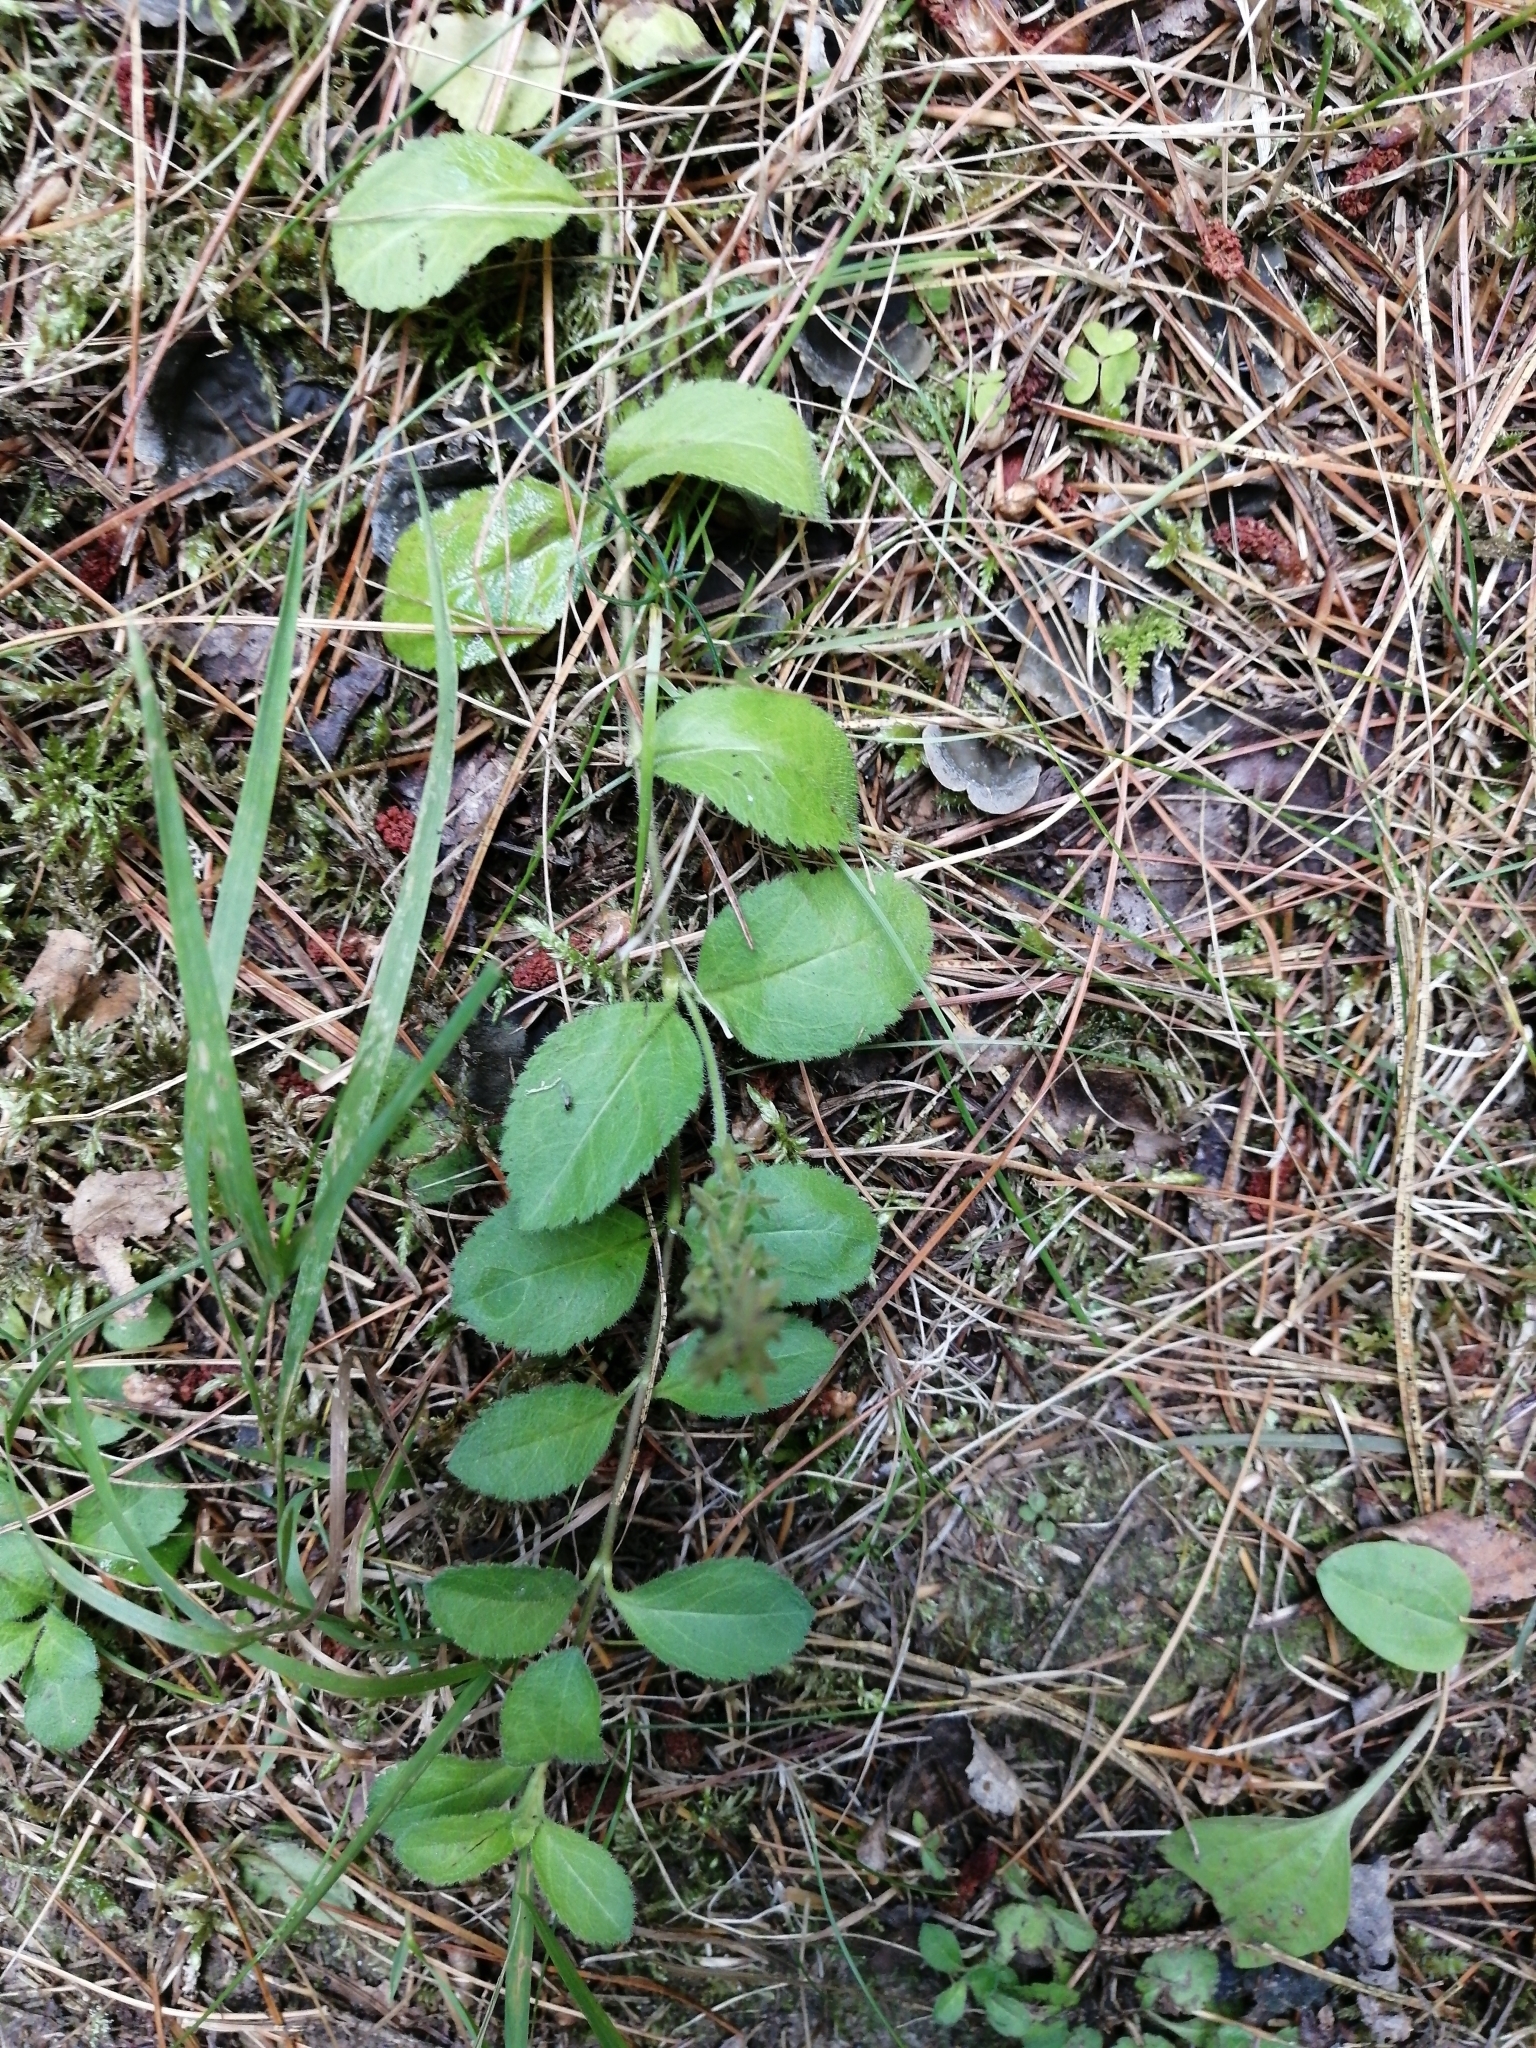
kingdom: Plantae
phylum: Tracheophyta
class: Magnoliopsida
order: Lamiales
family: Plantaginaceae
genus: Veronica
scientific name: Veronica officinalis
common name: Common speedwell
